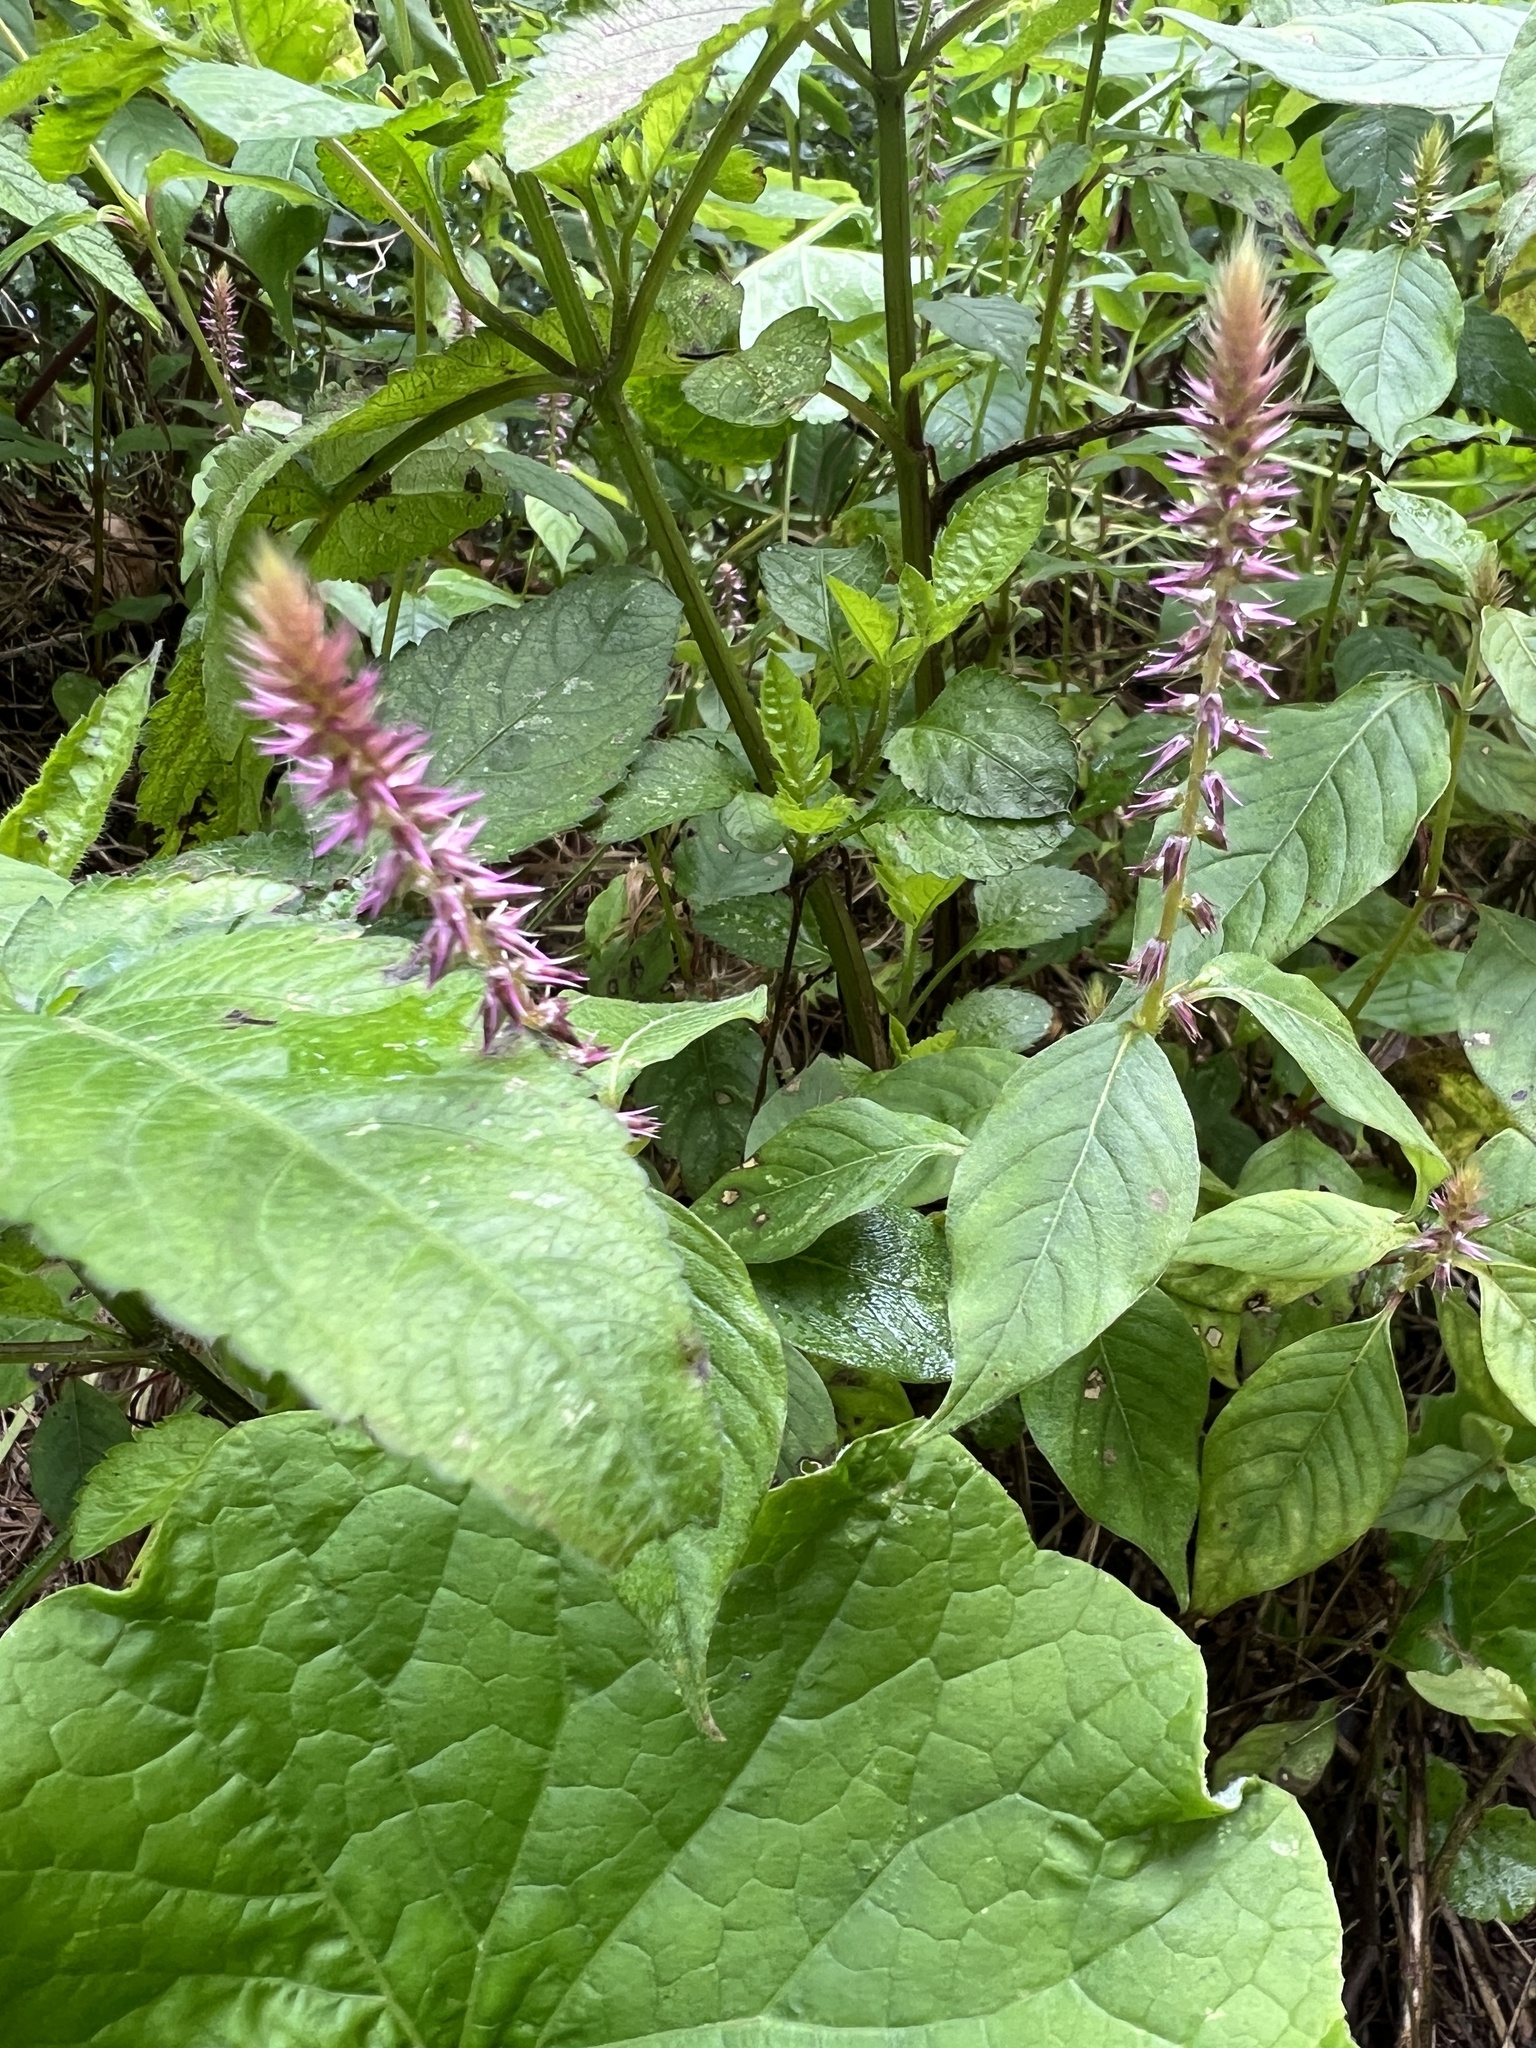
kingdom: Plantae
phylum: Tracheophyta
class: Magnoliopsida
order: Caryophyllales
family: Amaranthaceae
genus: Achyranthes
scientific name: Achyranthes aspera
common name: Devil's horsewhip
